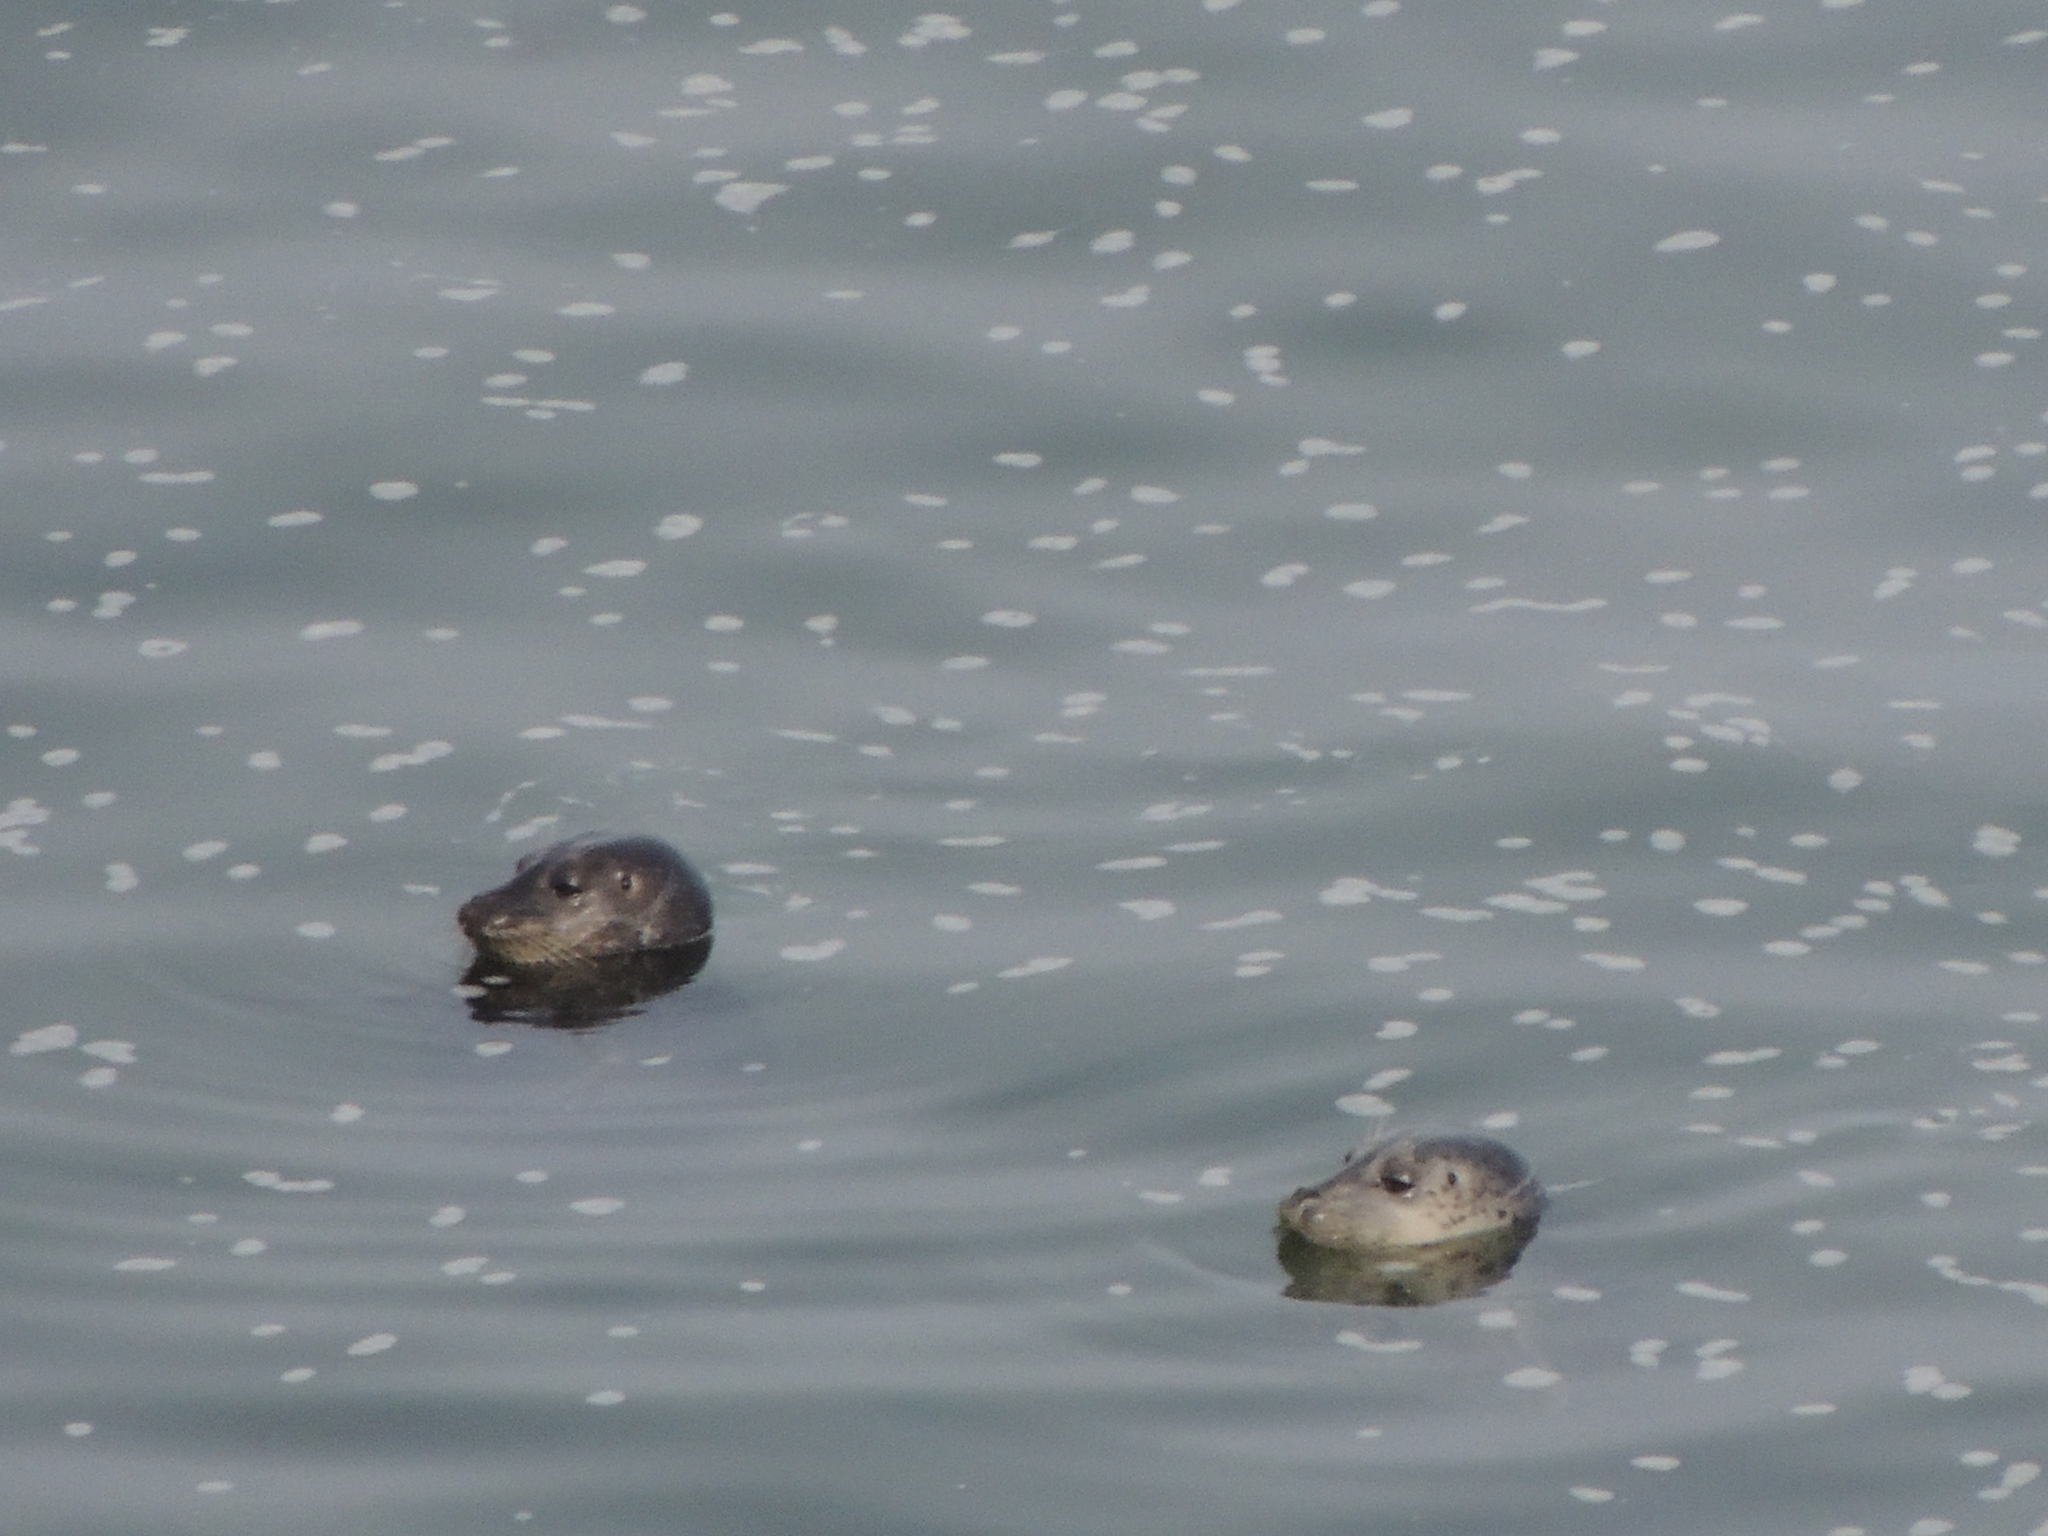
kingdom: Animalia
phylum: Chordata
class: Mammalia
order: Carnivora
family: Phocidae
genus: Phoca
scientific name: Phoca vitulina
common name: Harbor seal
